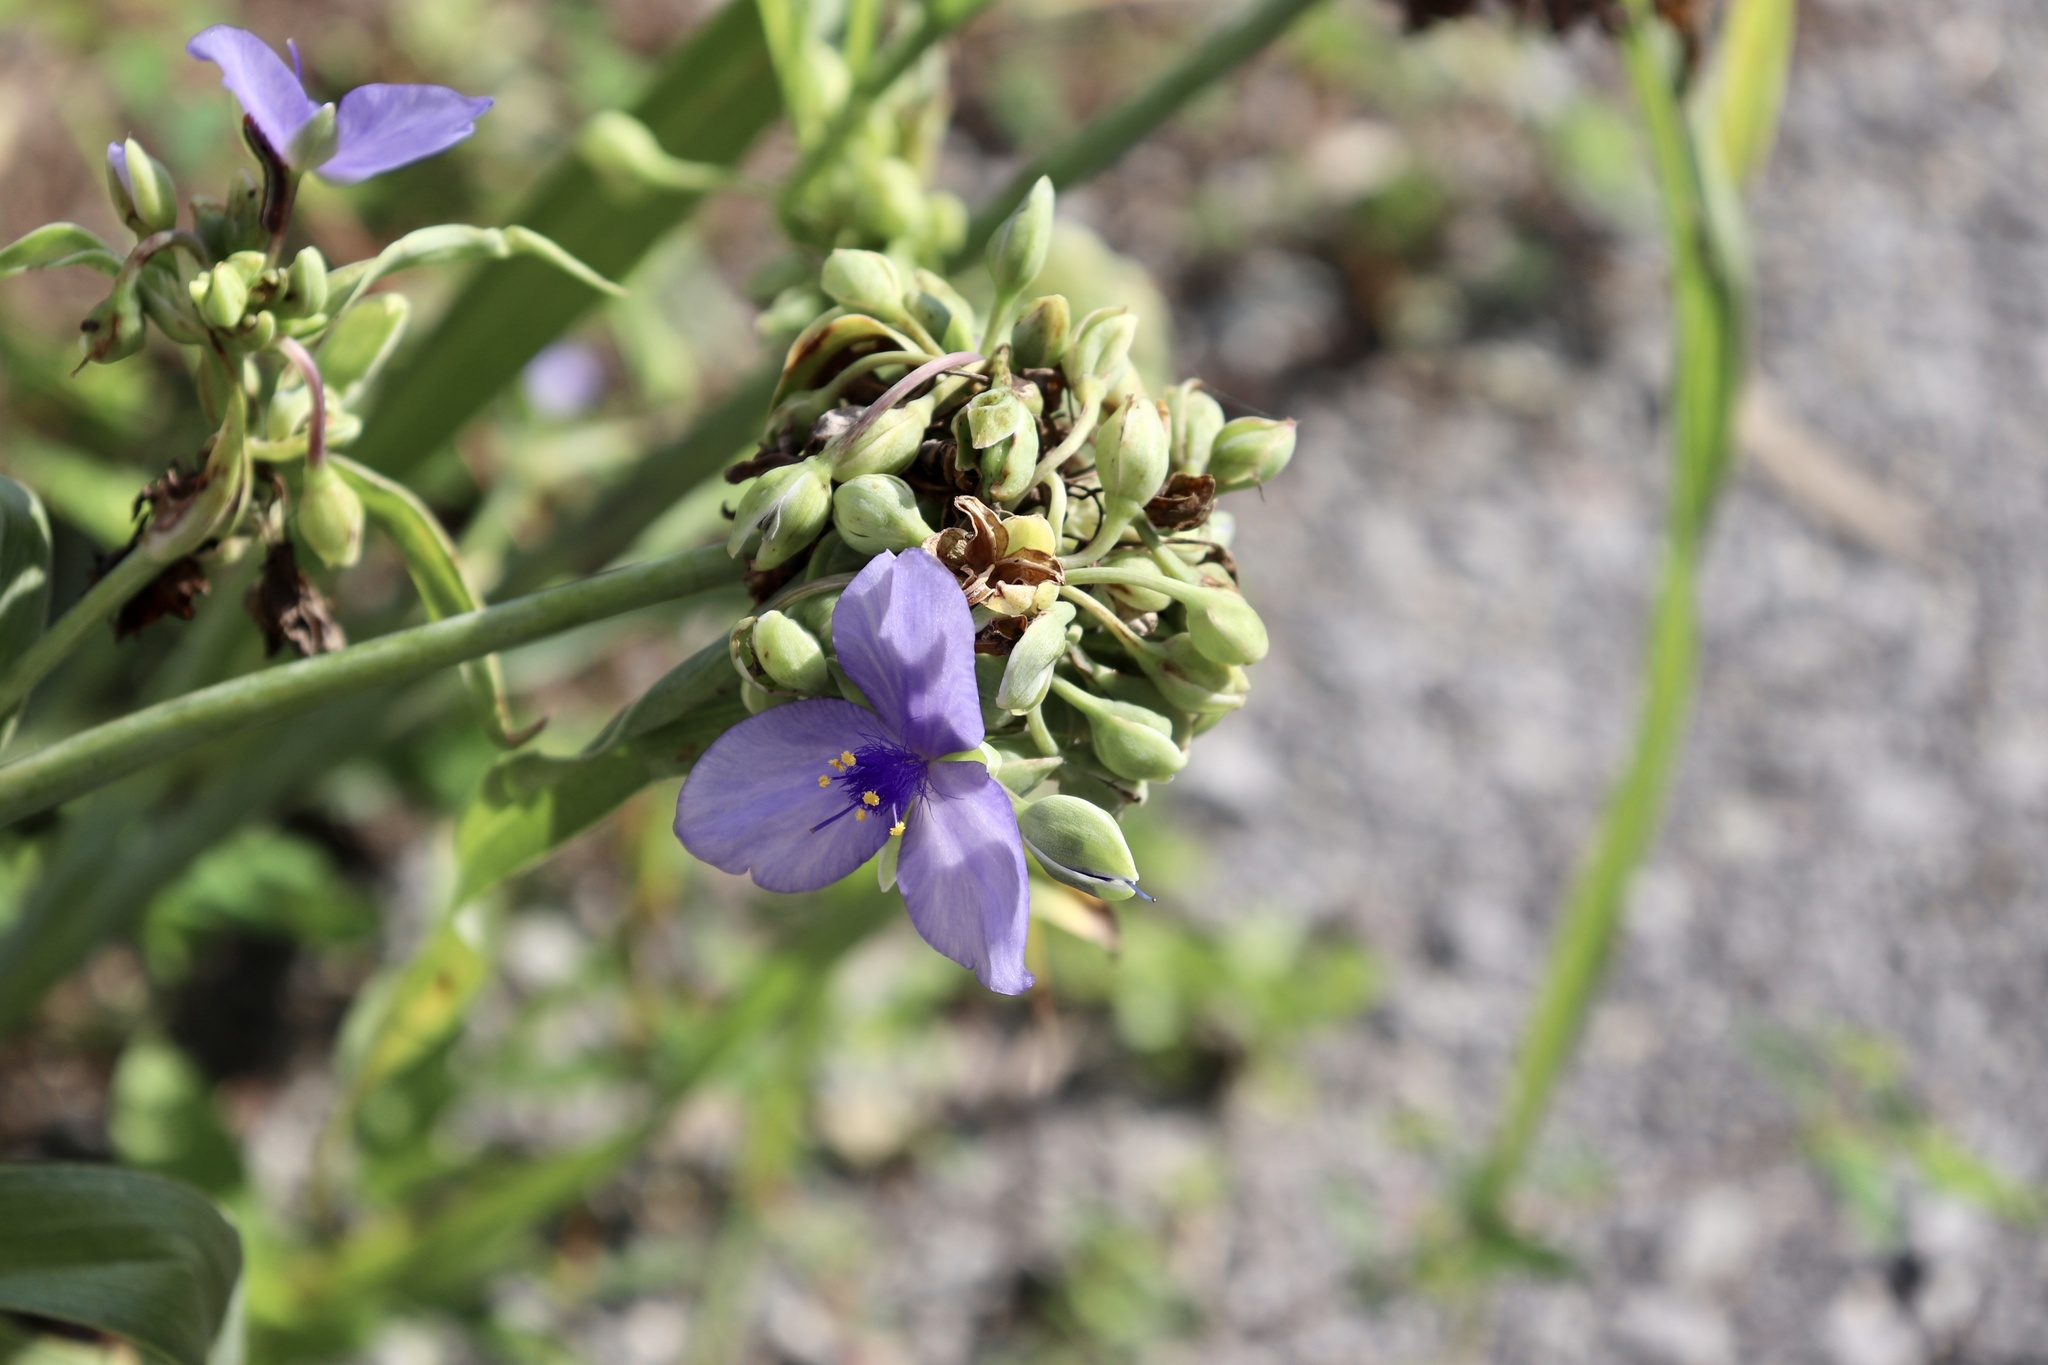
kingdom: Plantae
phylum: Tracheophyta
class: Liliopsida
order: Commelinales
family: Commelinaceae
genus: Tradescantia
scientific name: Tradescantia ohiensis
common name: Ohio spiderwort
